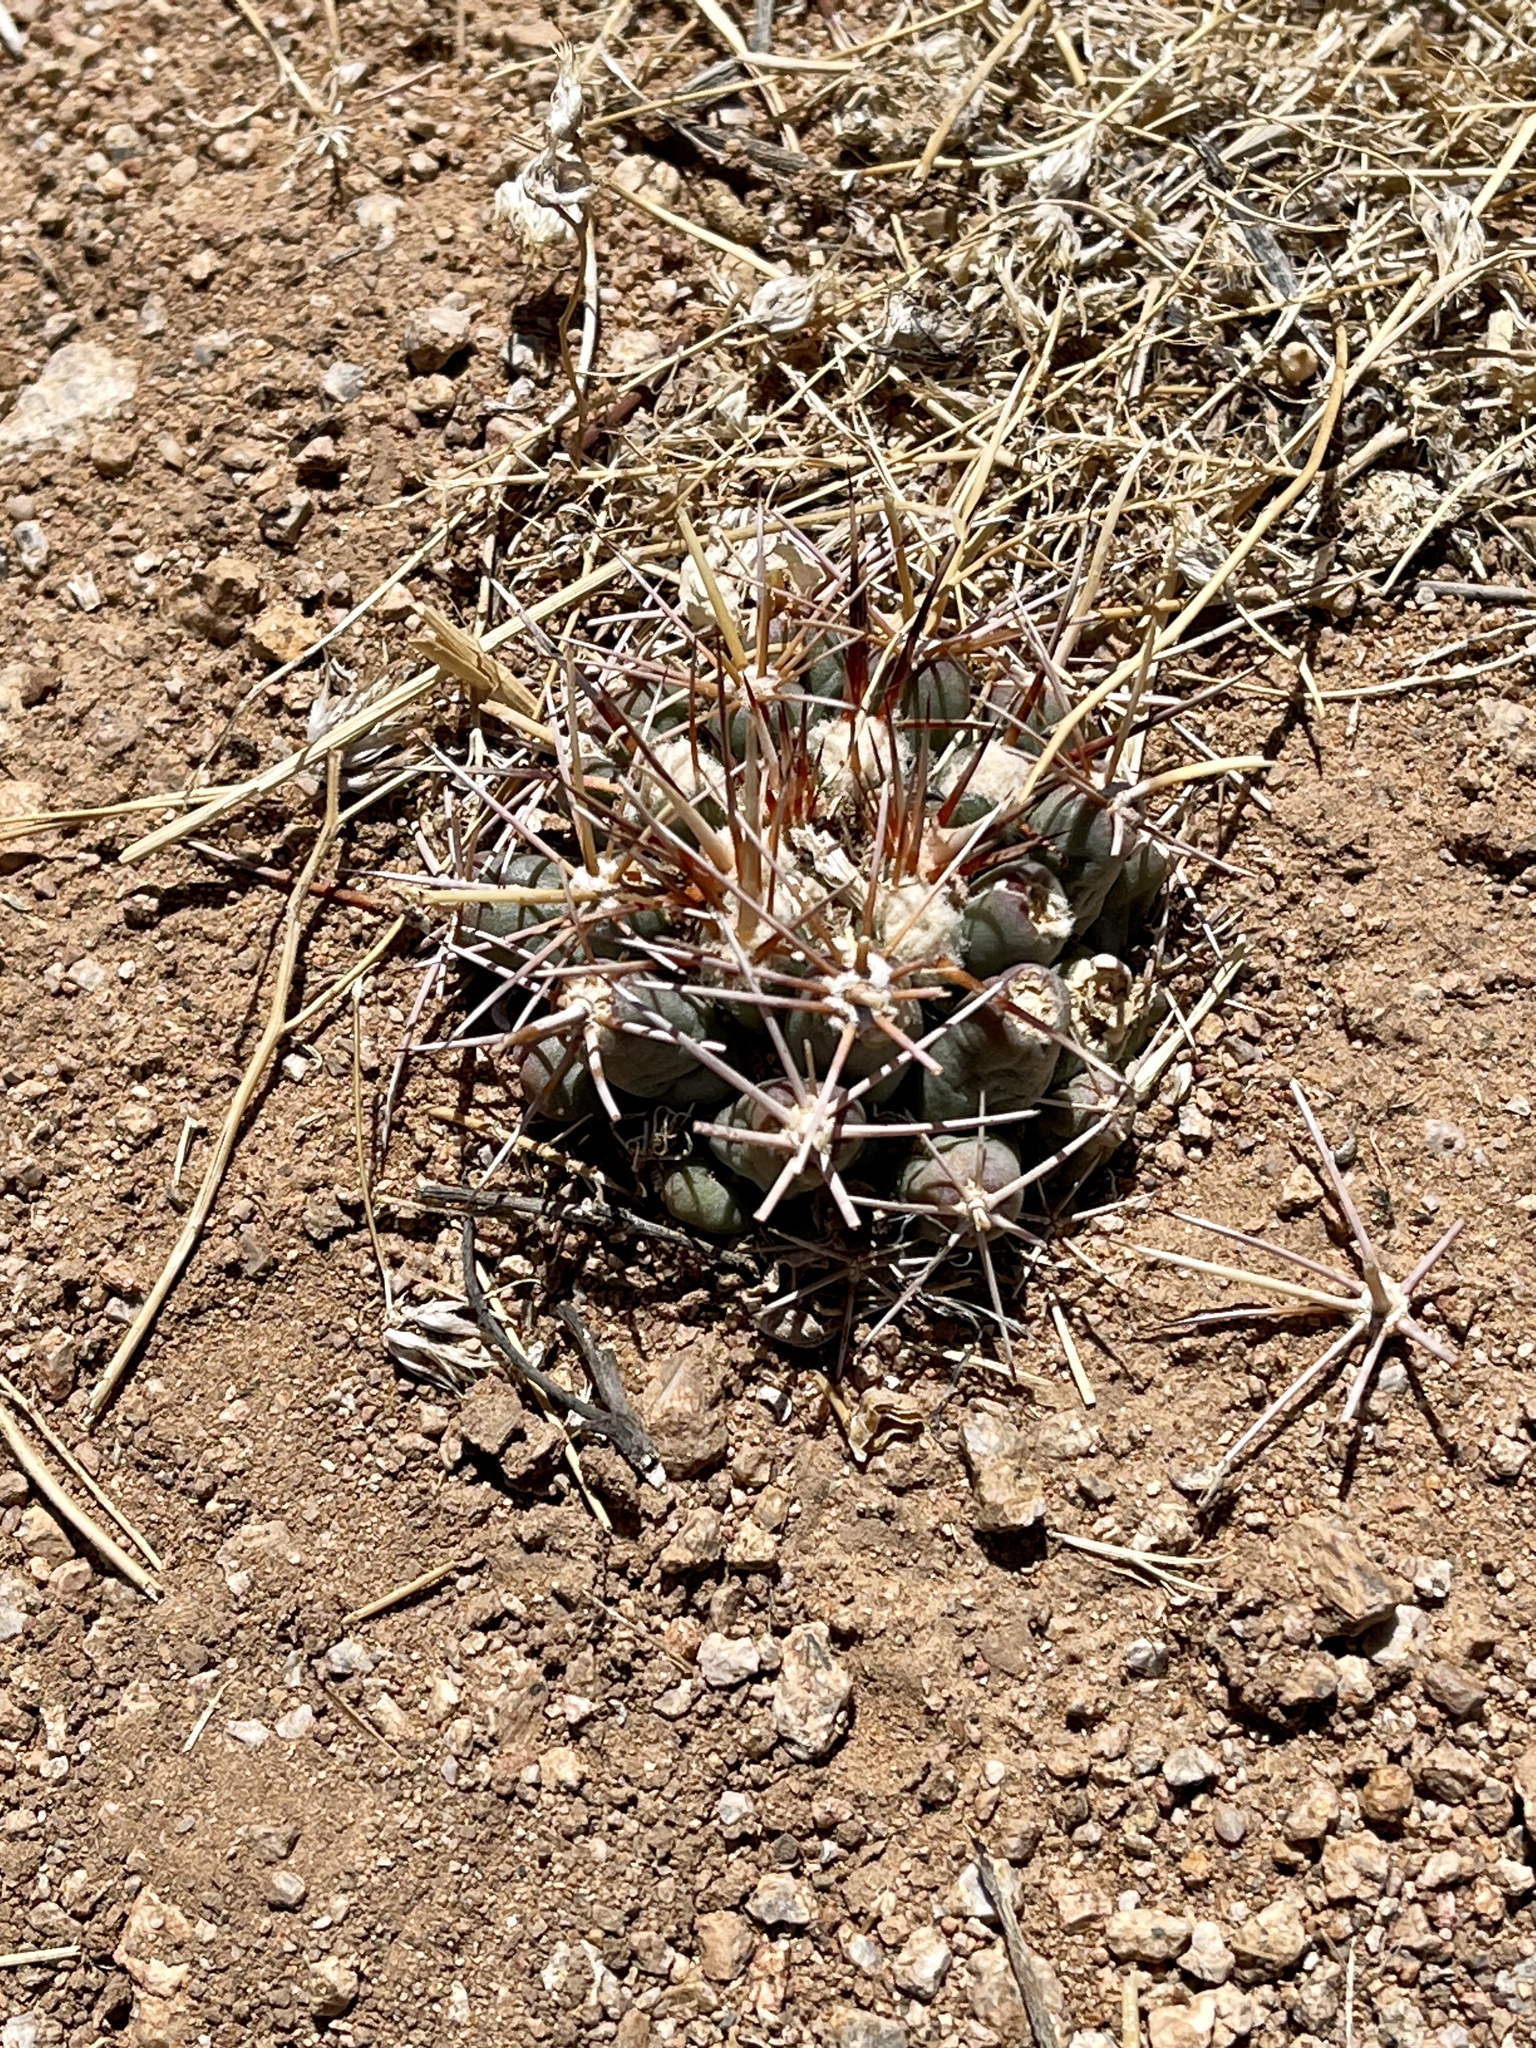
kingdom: Plantae
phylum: Tracheophyta
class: Magnoliopsida
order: Caryophyllales
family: Cactaceae
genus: Coryphantha
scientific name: Coryphantha robustispina
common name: Pima pineapple cactus
